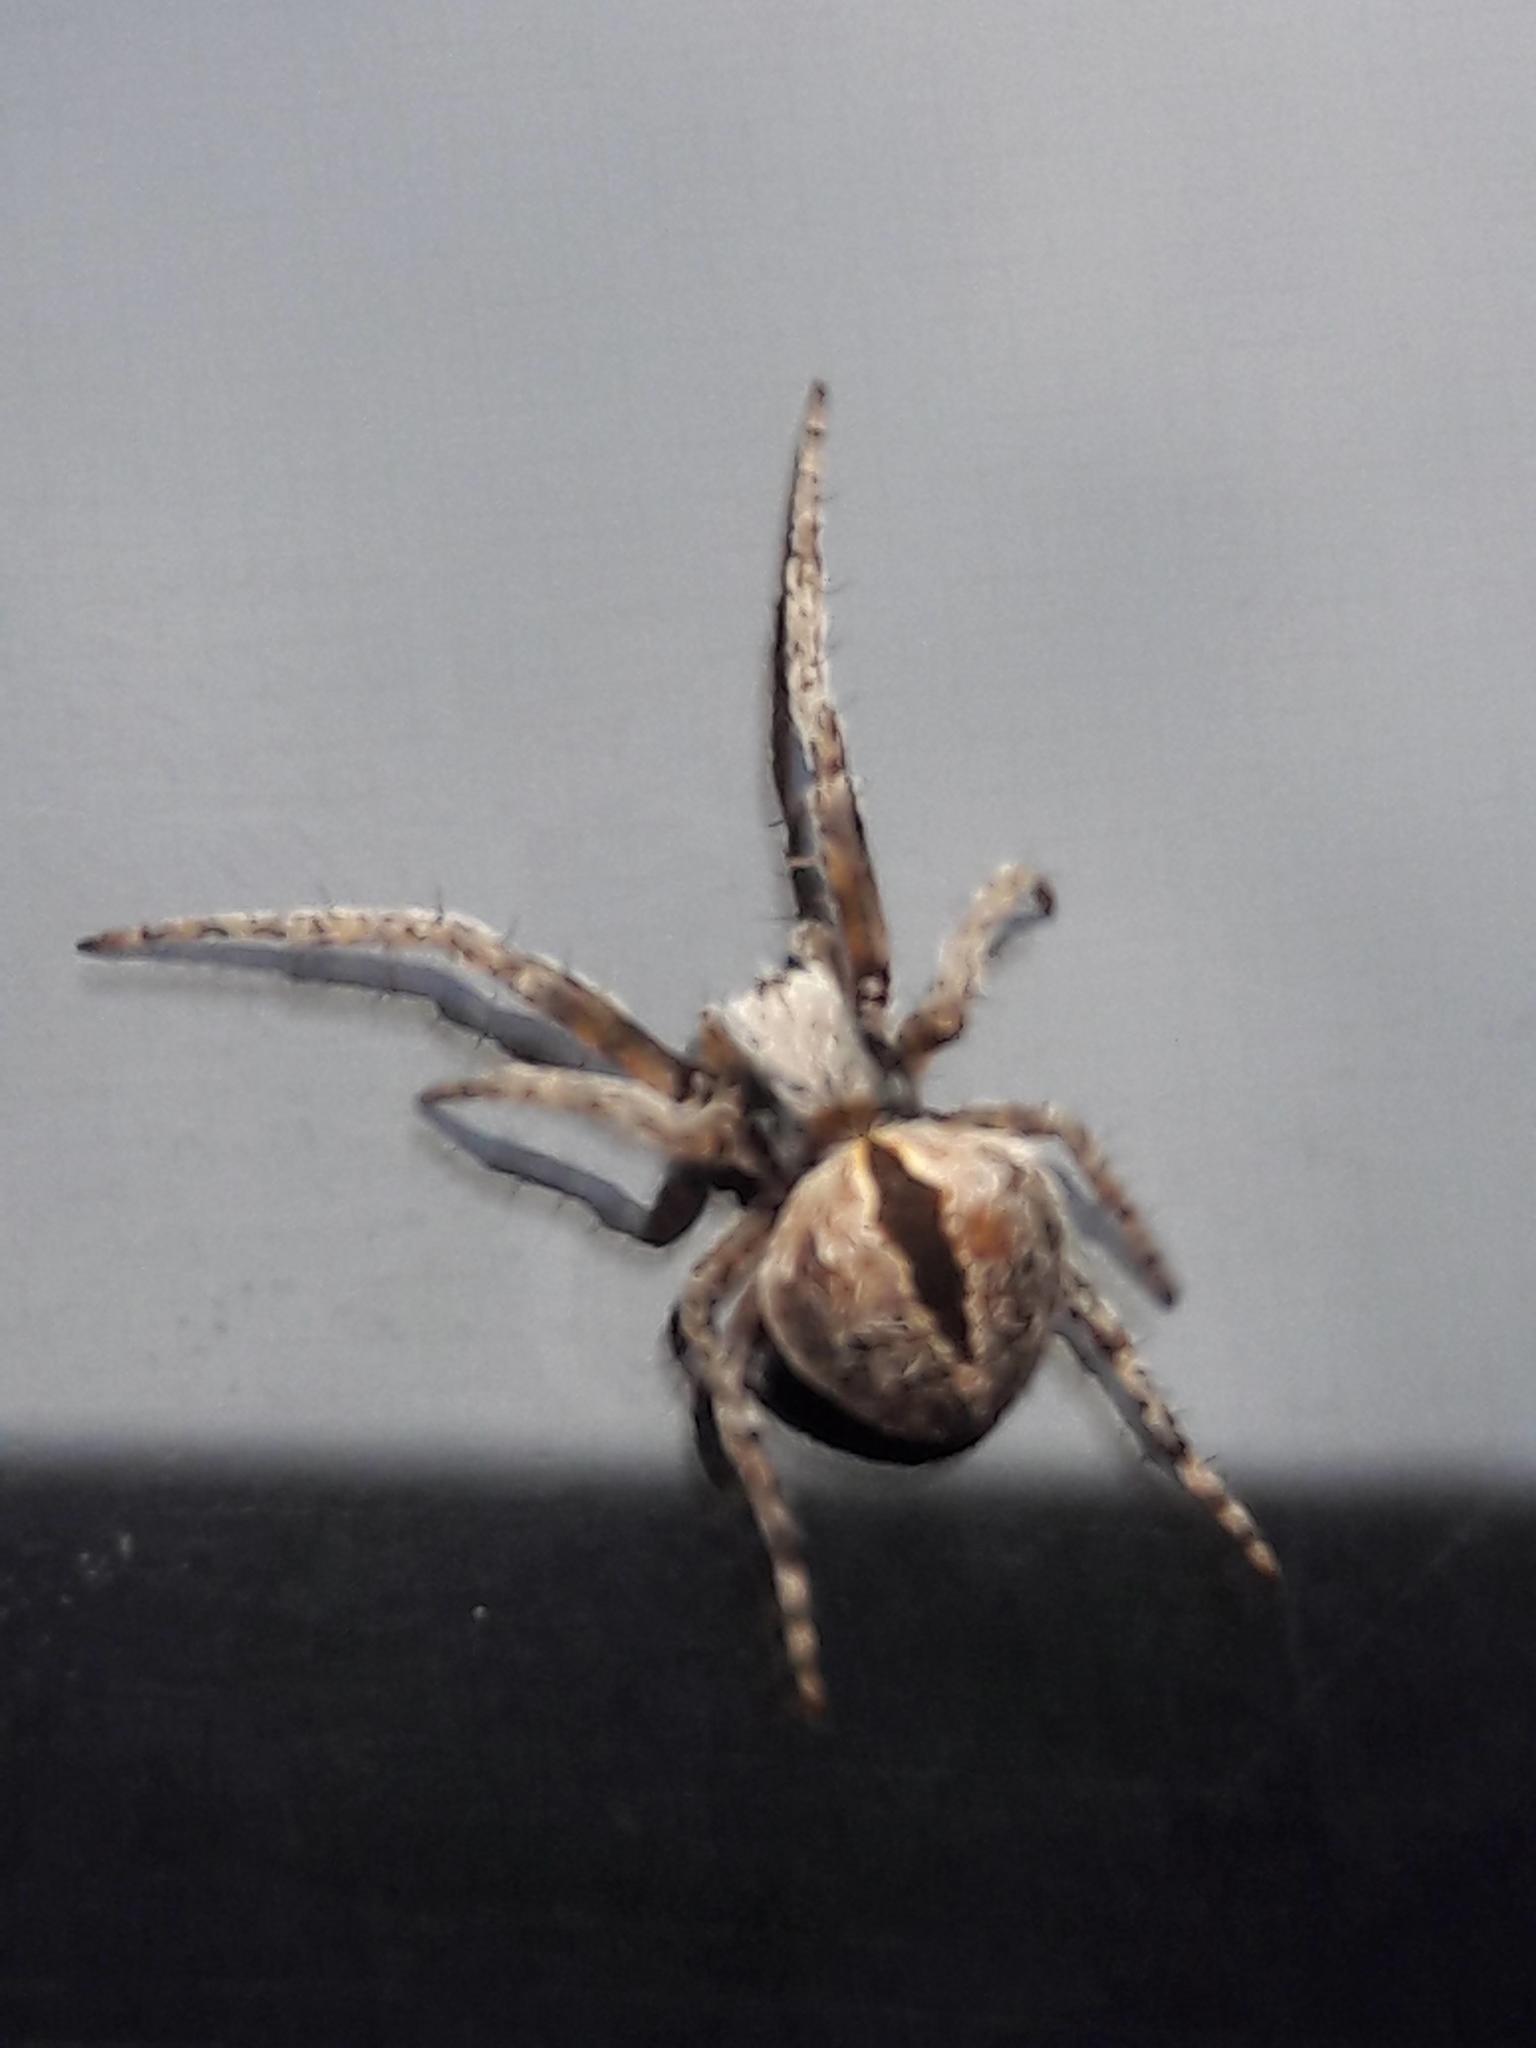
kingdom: Animalia
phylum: Arthropoda
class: Arachnida
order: Araneae
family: Araneidae
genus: Agalenatea
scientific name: Agalenatea redii
